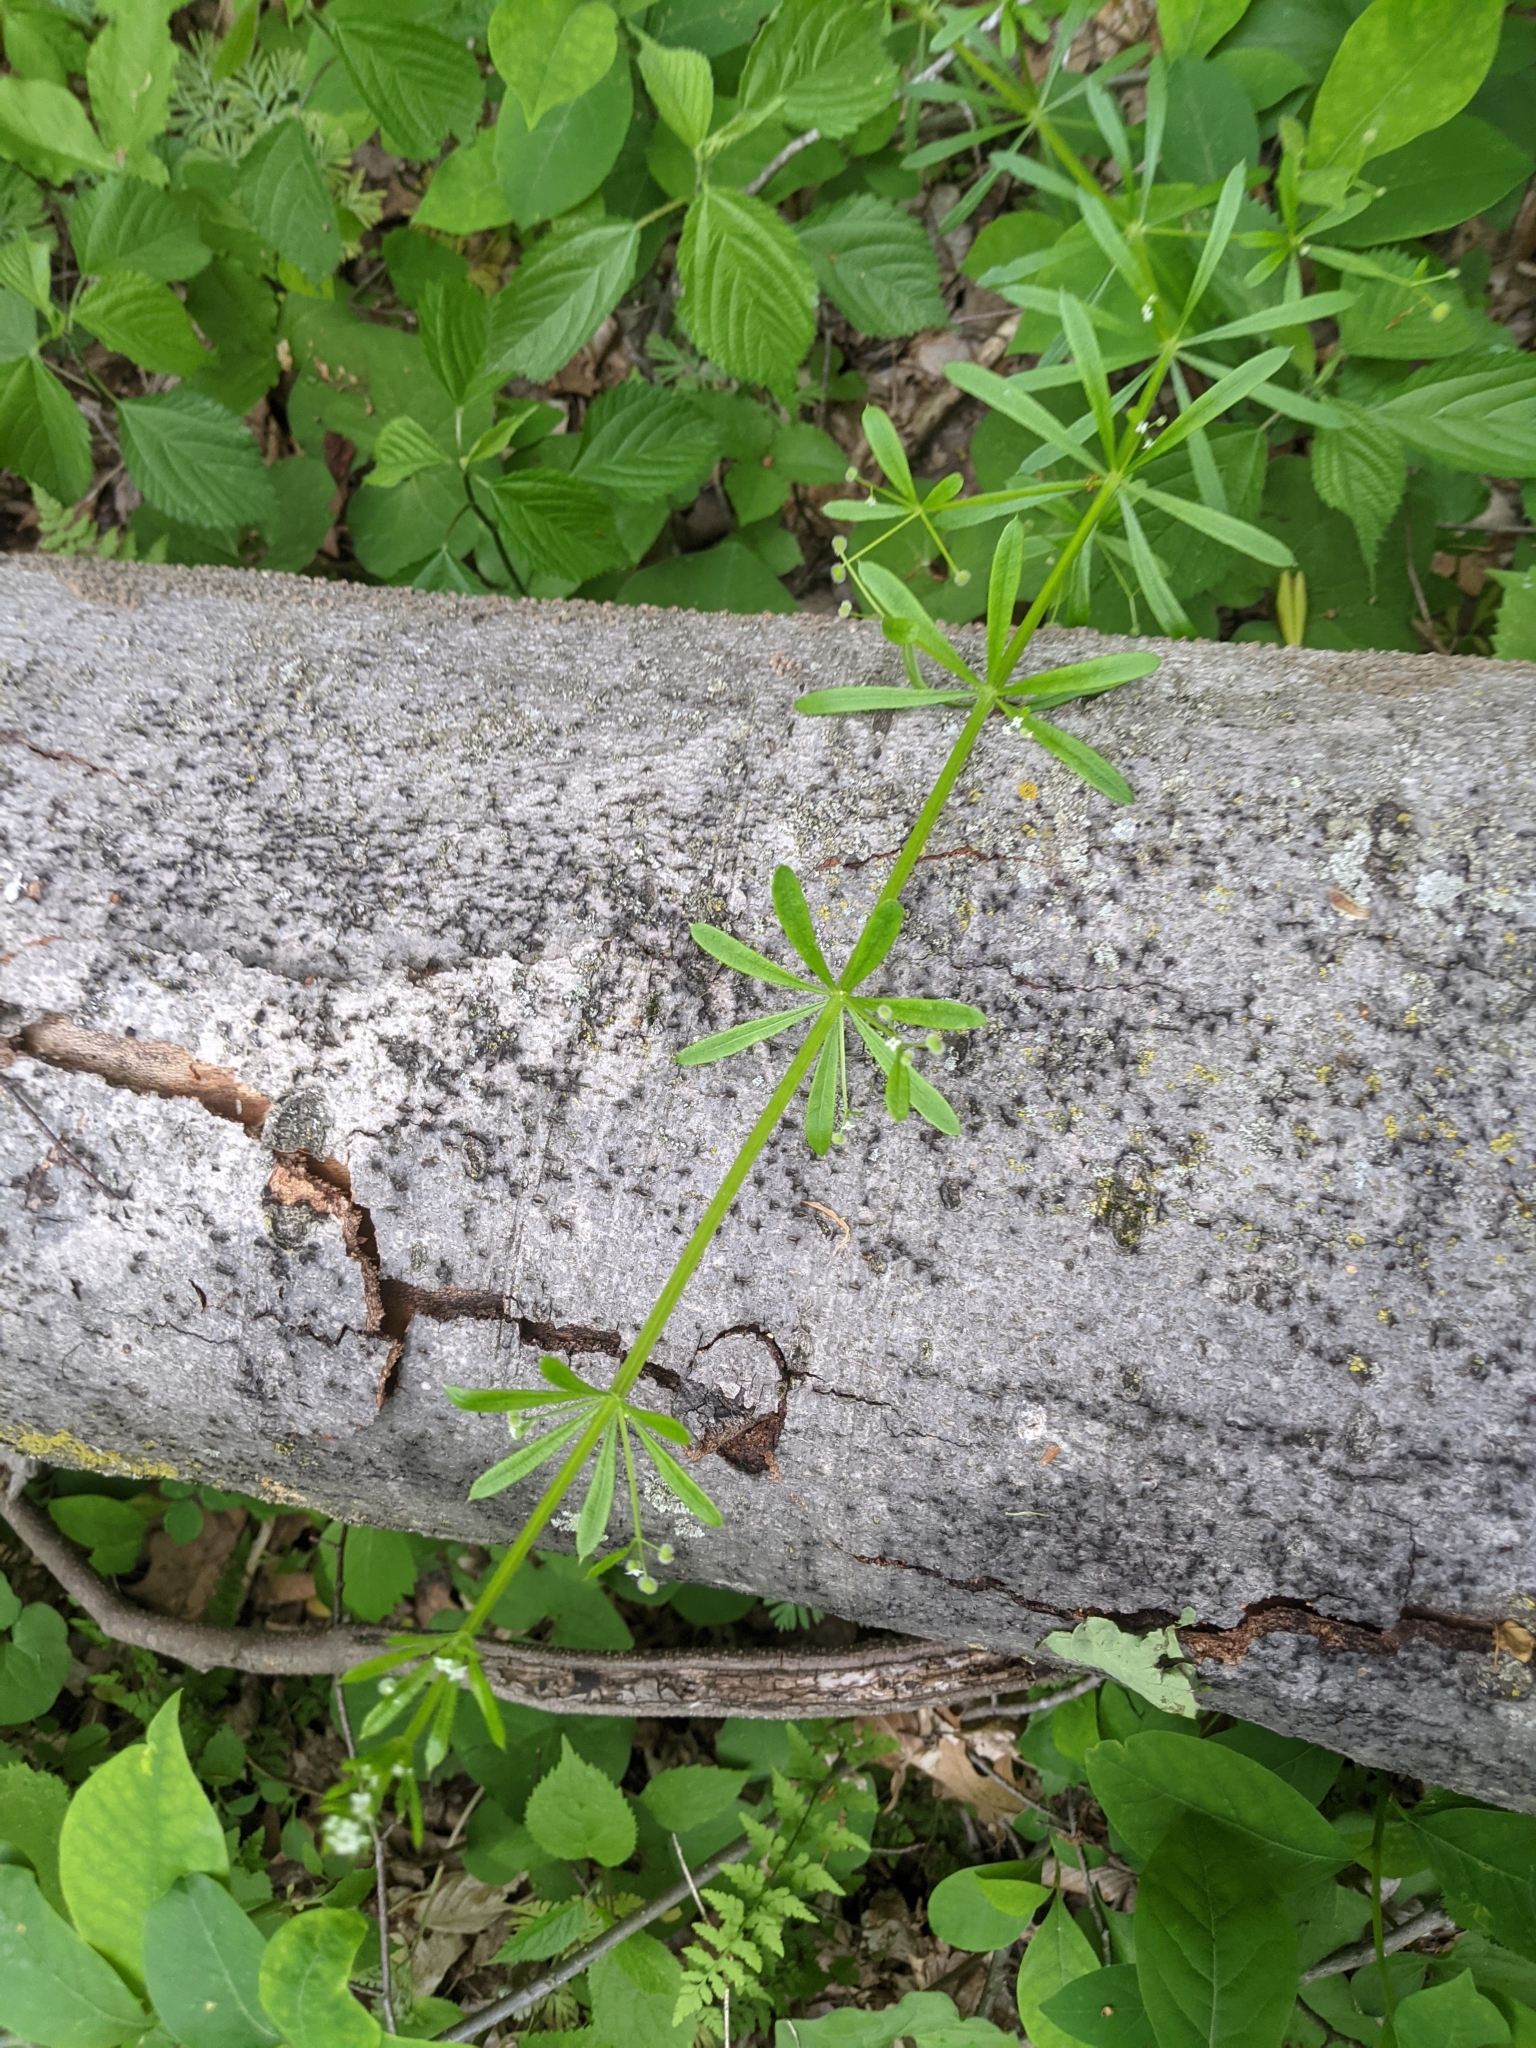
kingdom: Plantae
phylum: Tracheophyta
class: Magnoliopsida
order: Gentianales
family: Rubiaceae
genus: Galium
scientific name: Galium aparine
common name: Cleavers
